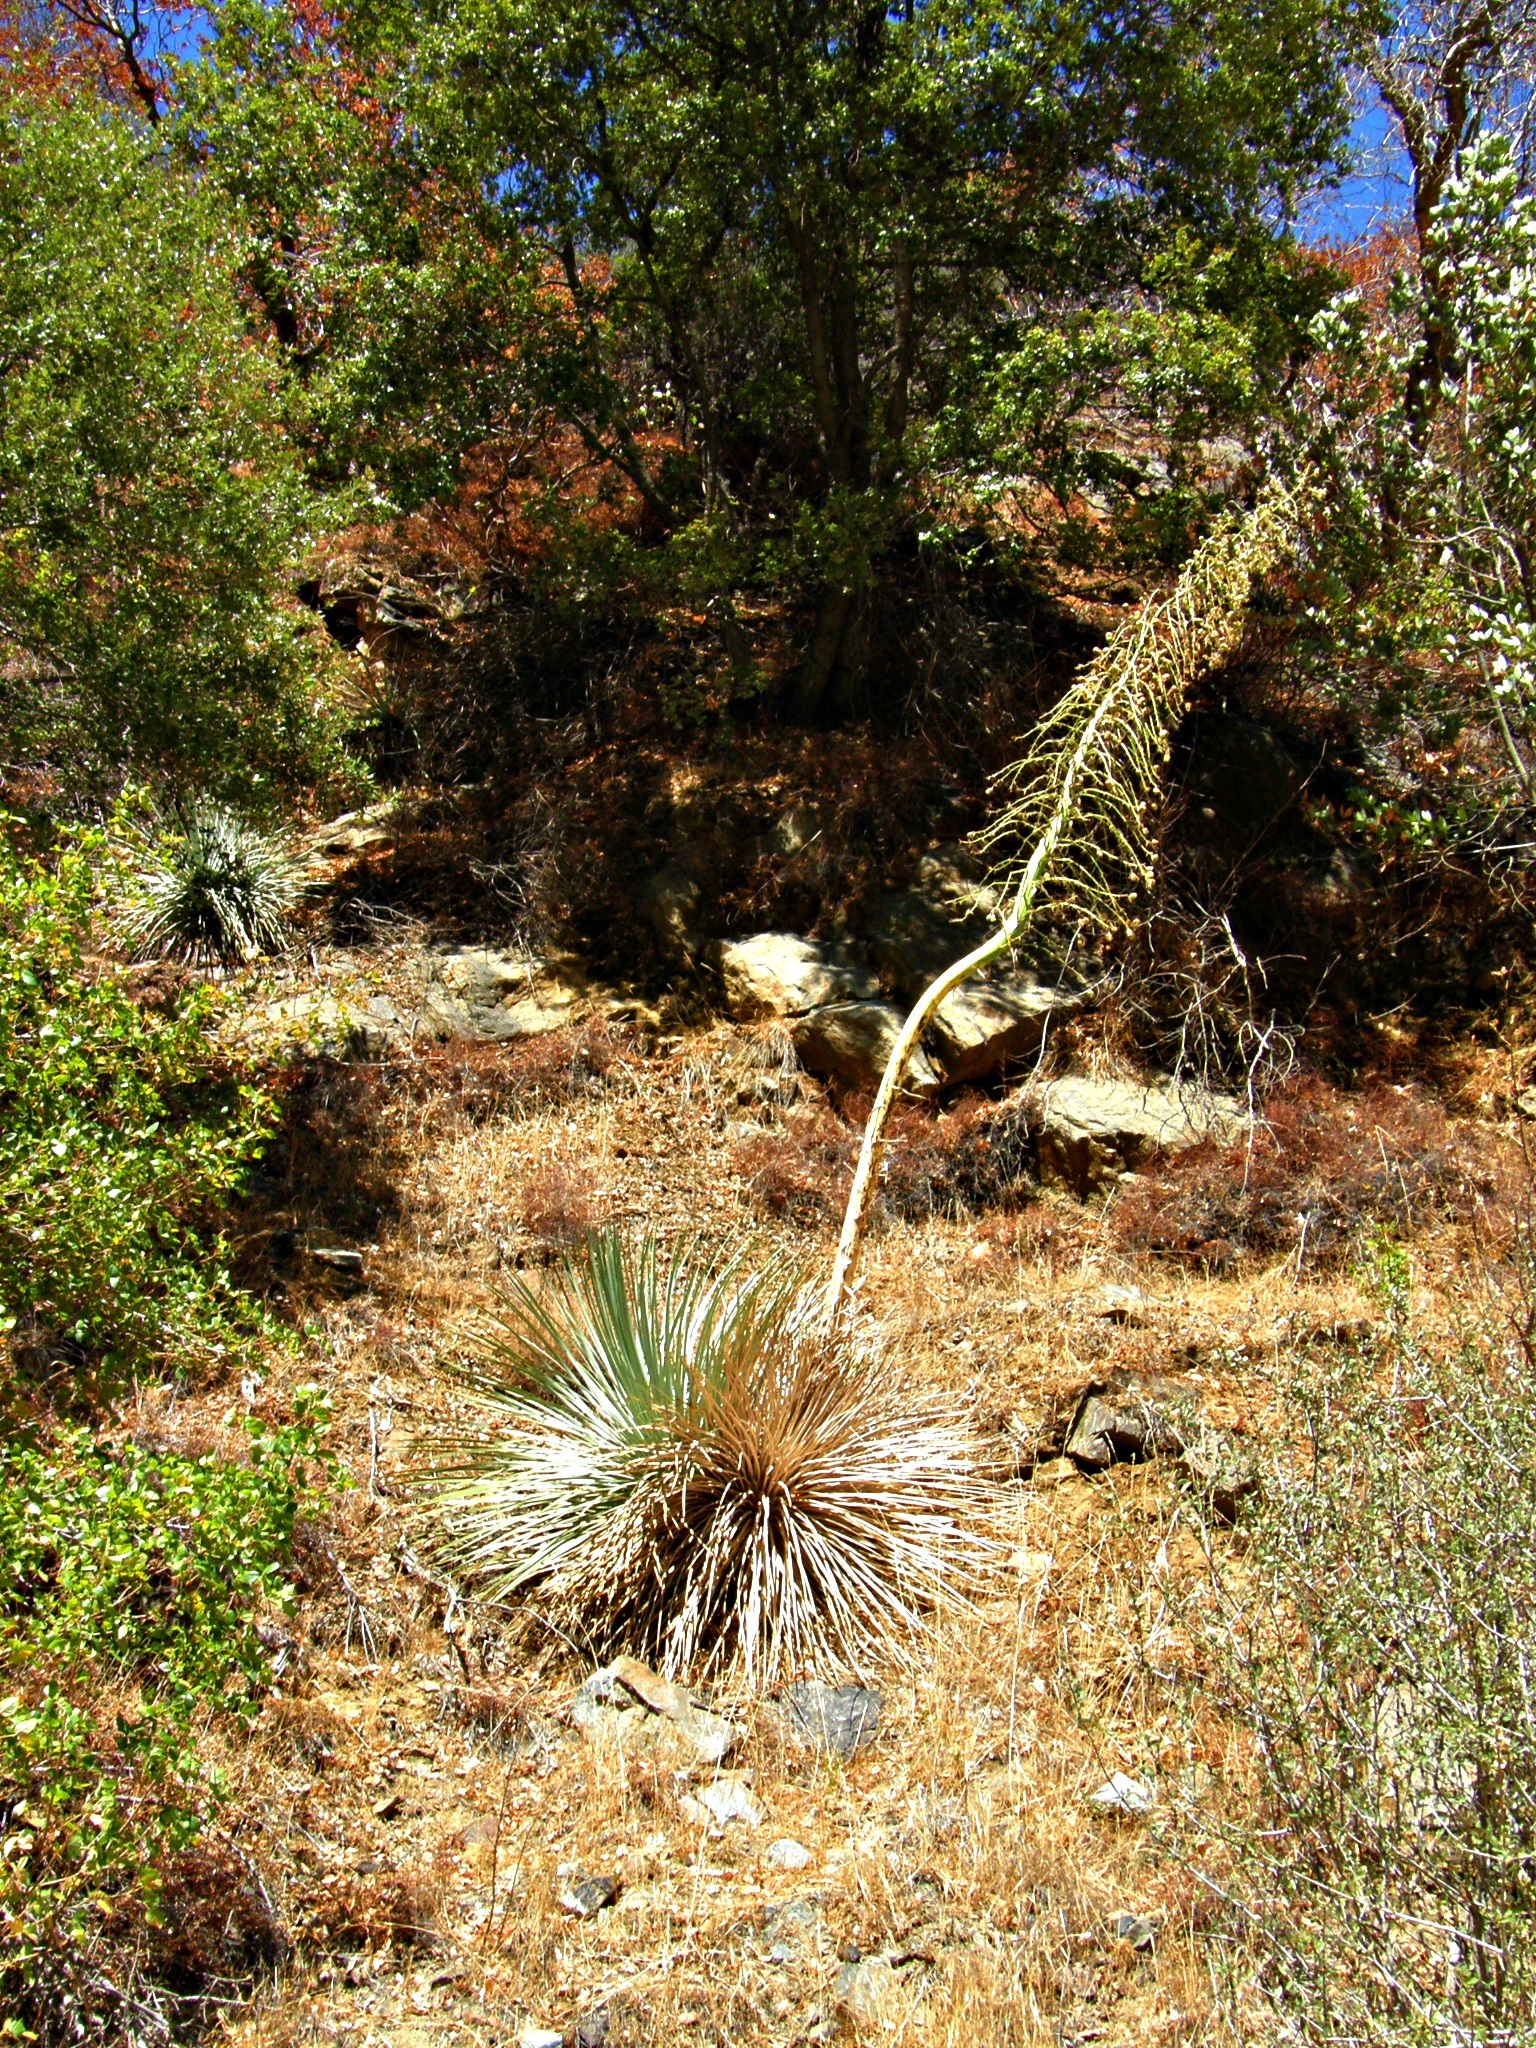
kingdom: Plantae
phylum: Tracheophyta
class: Liliopsida
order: Asparagales
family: Asparagaceae
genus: Hesperoyucca
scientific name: Hesperoyucca whipplei
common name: Our lord's-candle
